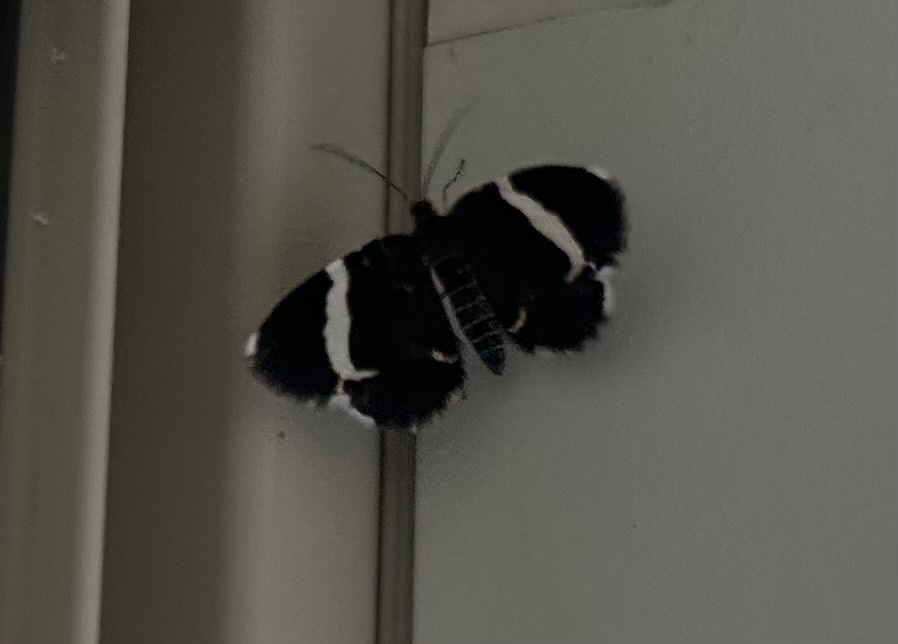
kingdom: Animalia
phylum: Arthropoda
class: Insecta
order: Lepidoptera
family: Geometridae
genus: Trichodezia
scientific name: Trichodezia albovittata
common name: White striped black
